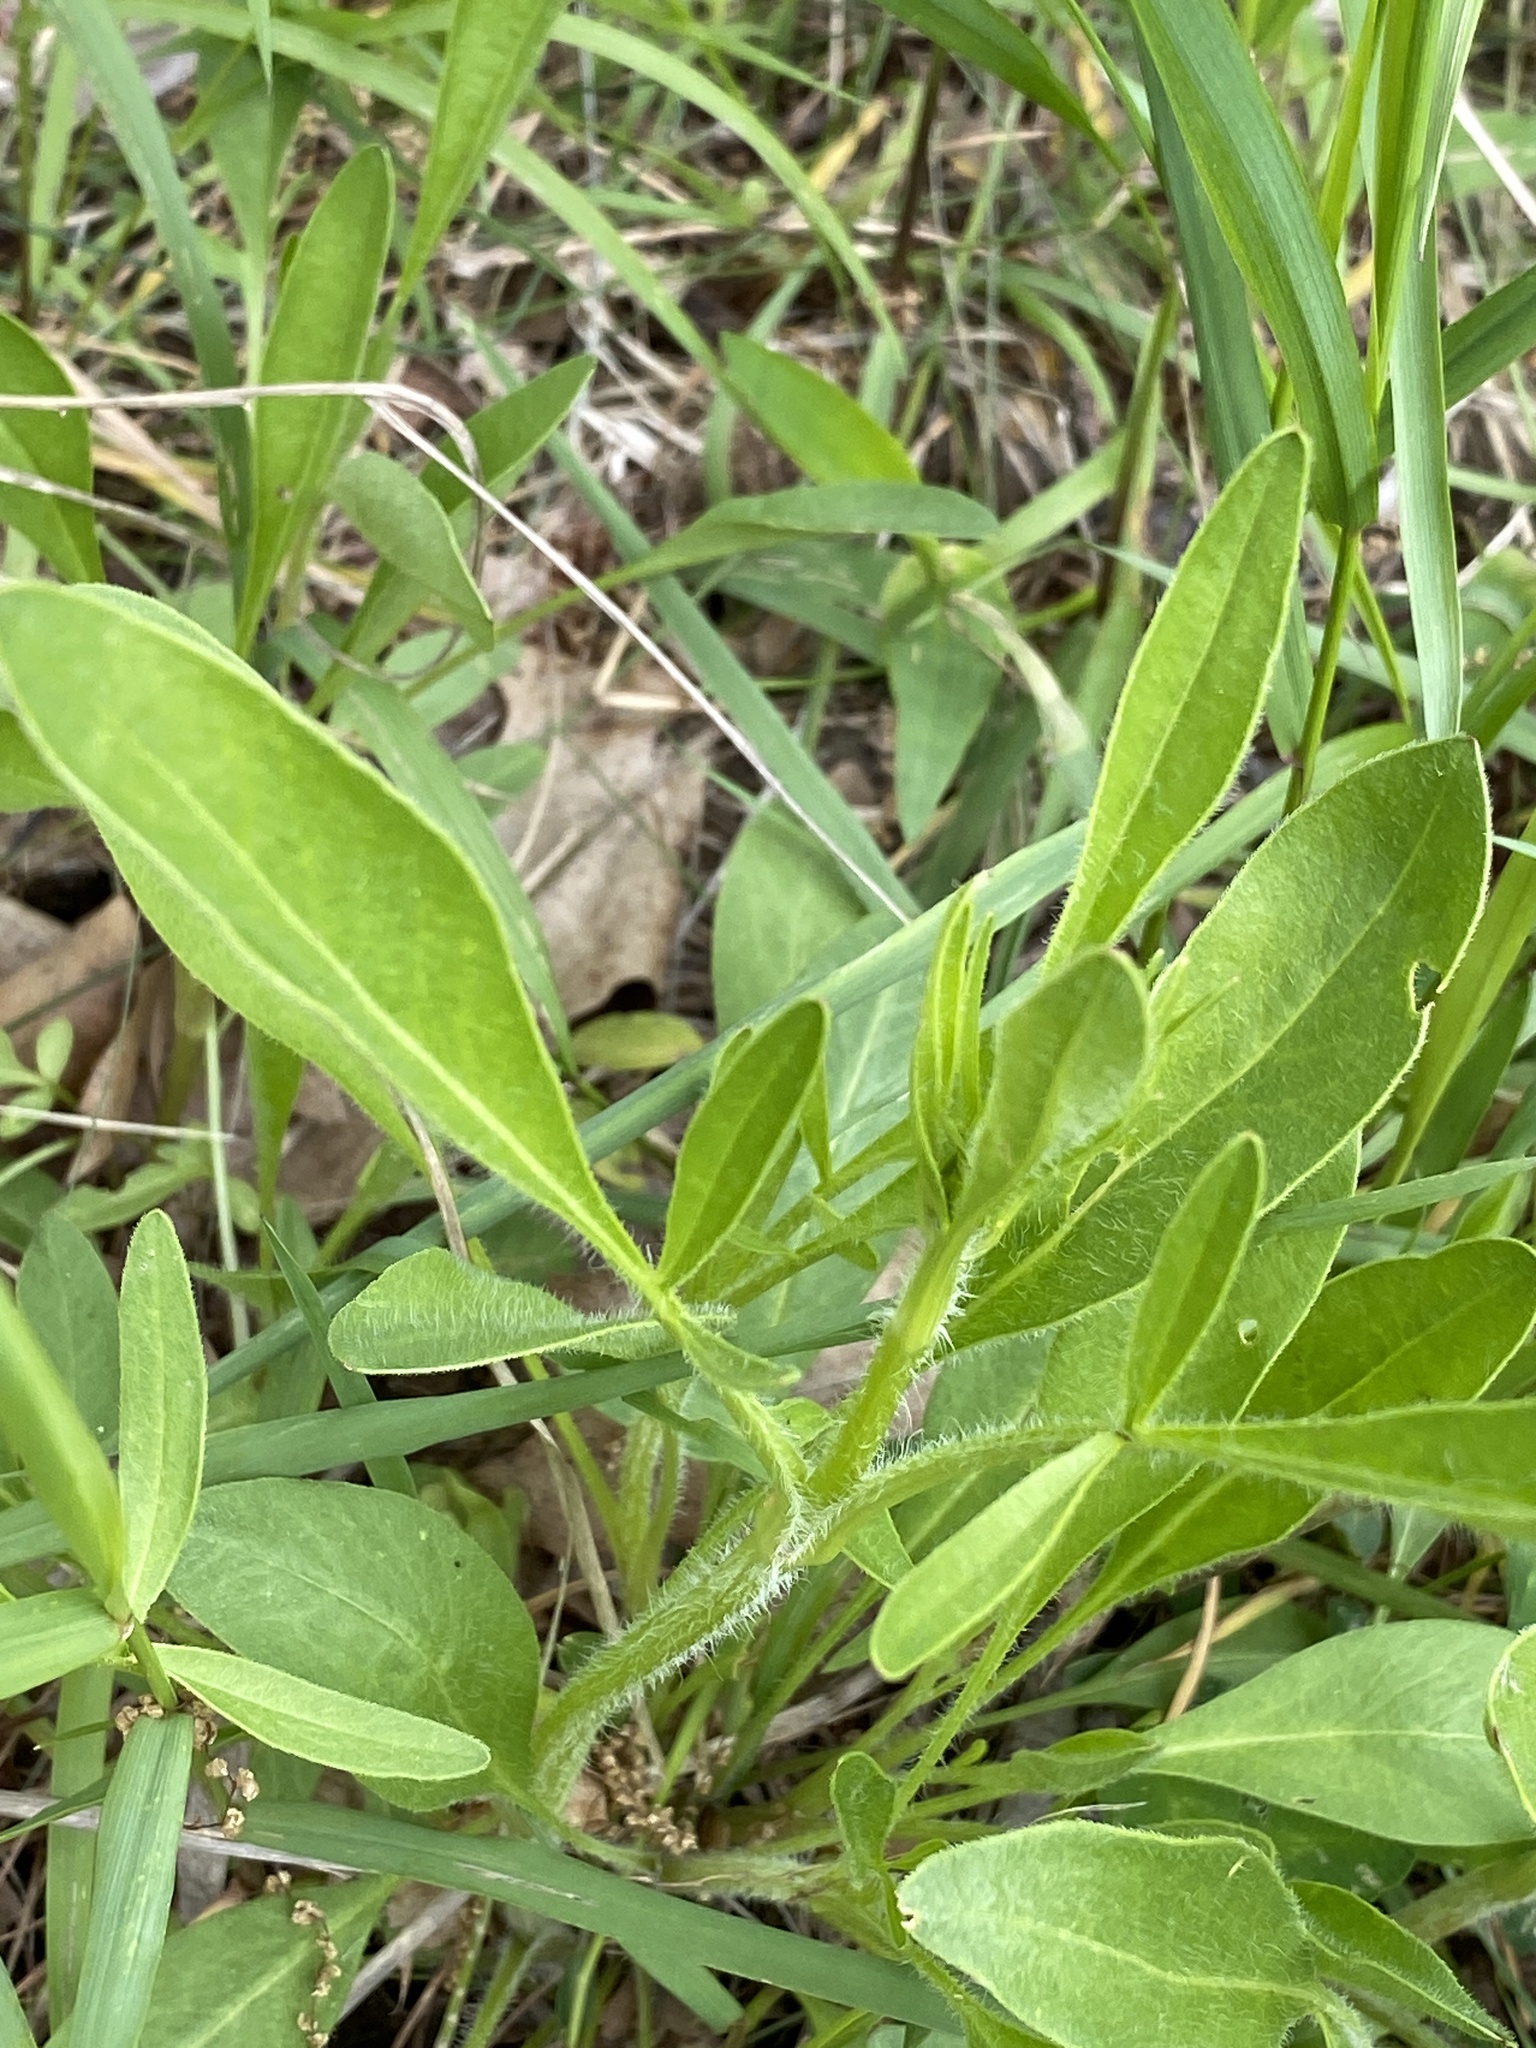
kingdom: Plantae
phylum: Tracheophyta
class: Magnoliopsida
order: Asterales
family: Asteraceae
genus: Coreopsis
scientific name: Coreopsis lanceolata
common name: Garden coreopsis
